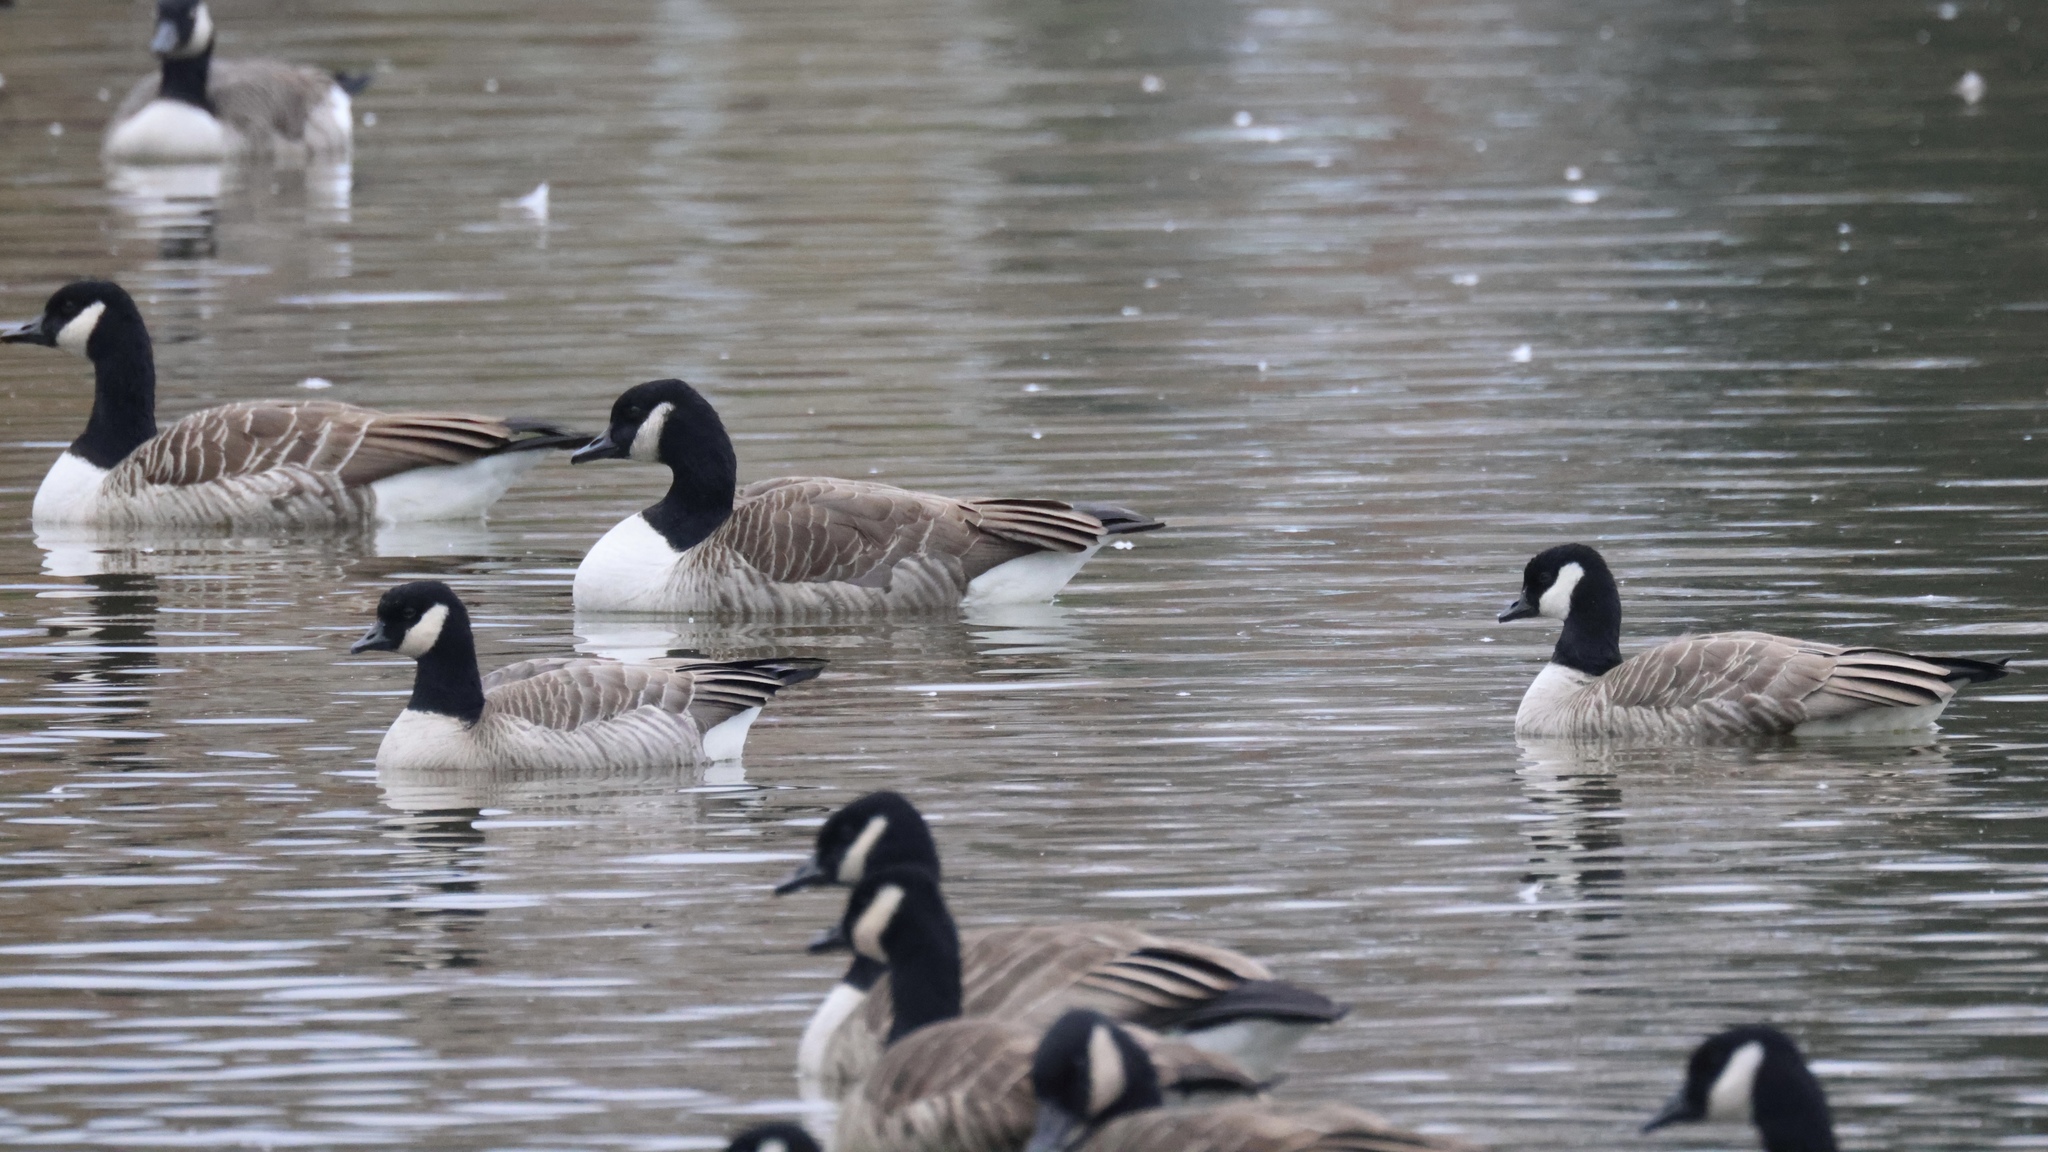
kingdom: Animalia
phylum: Chordata
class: Aves
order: Anseriformes
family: Anatidae
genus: Branta
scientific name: Branta hutchinsii
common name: Cackling goose
